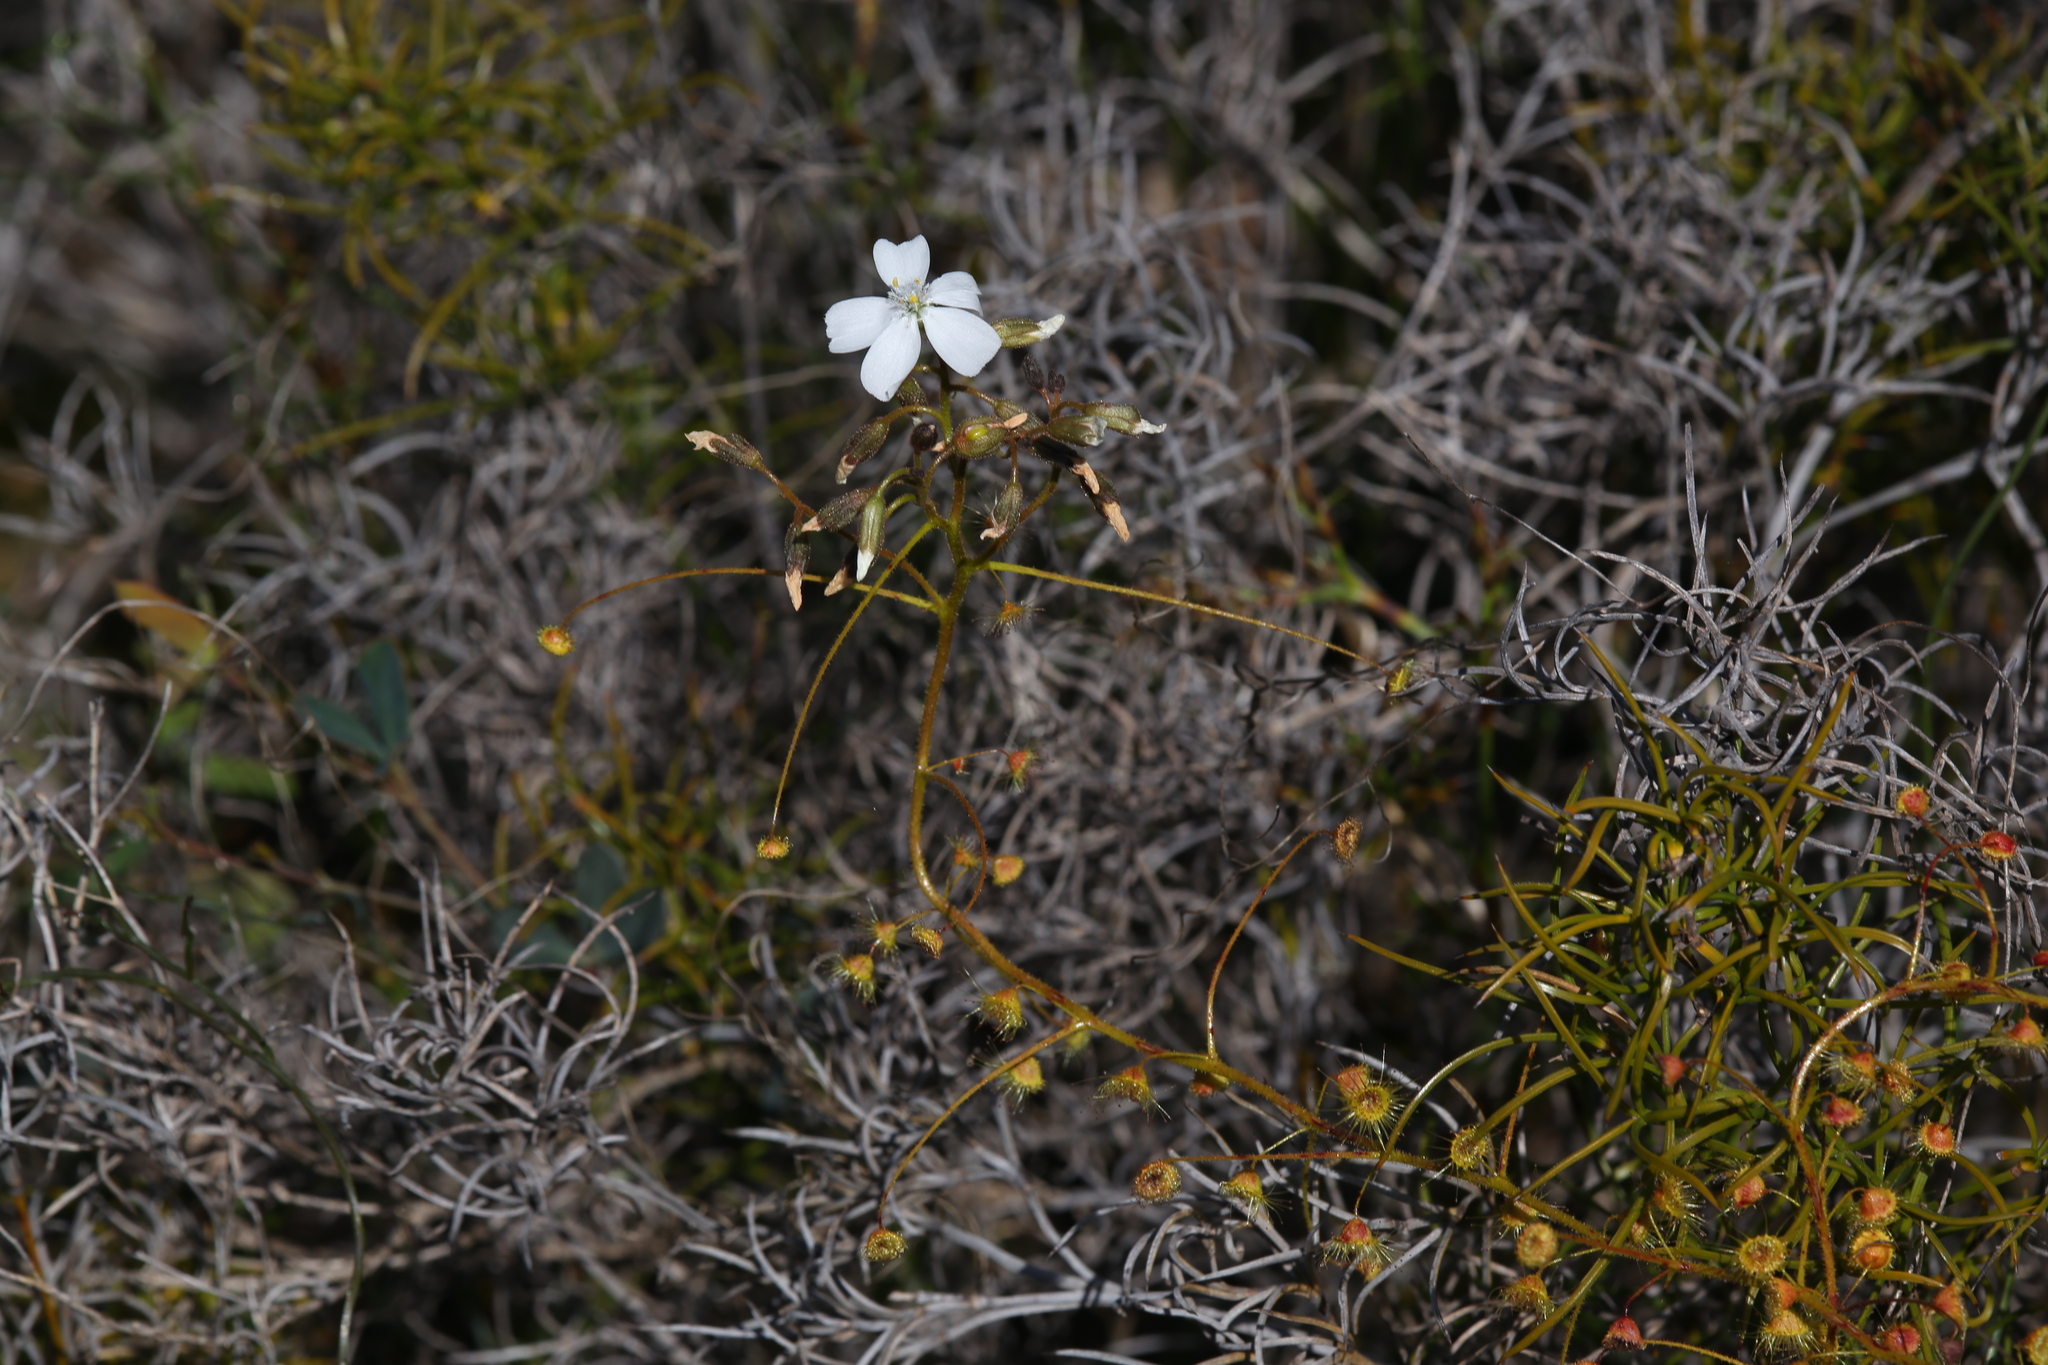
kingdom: Plantae
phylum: Tracheophyta
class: Magnoliopsida
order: Caryophyllales
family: Droseraceae
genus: Drosera
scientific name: Drosera macrantha
